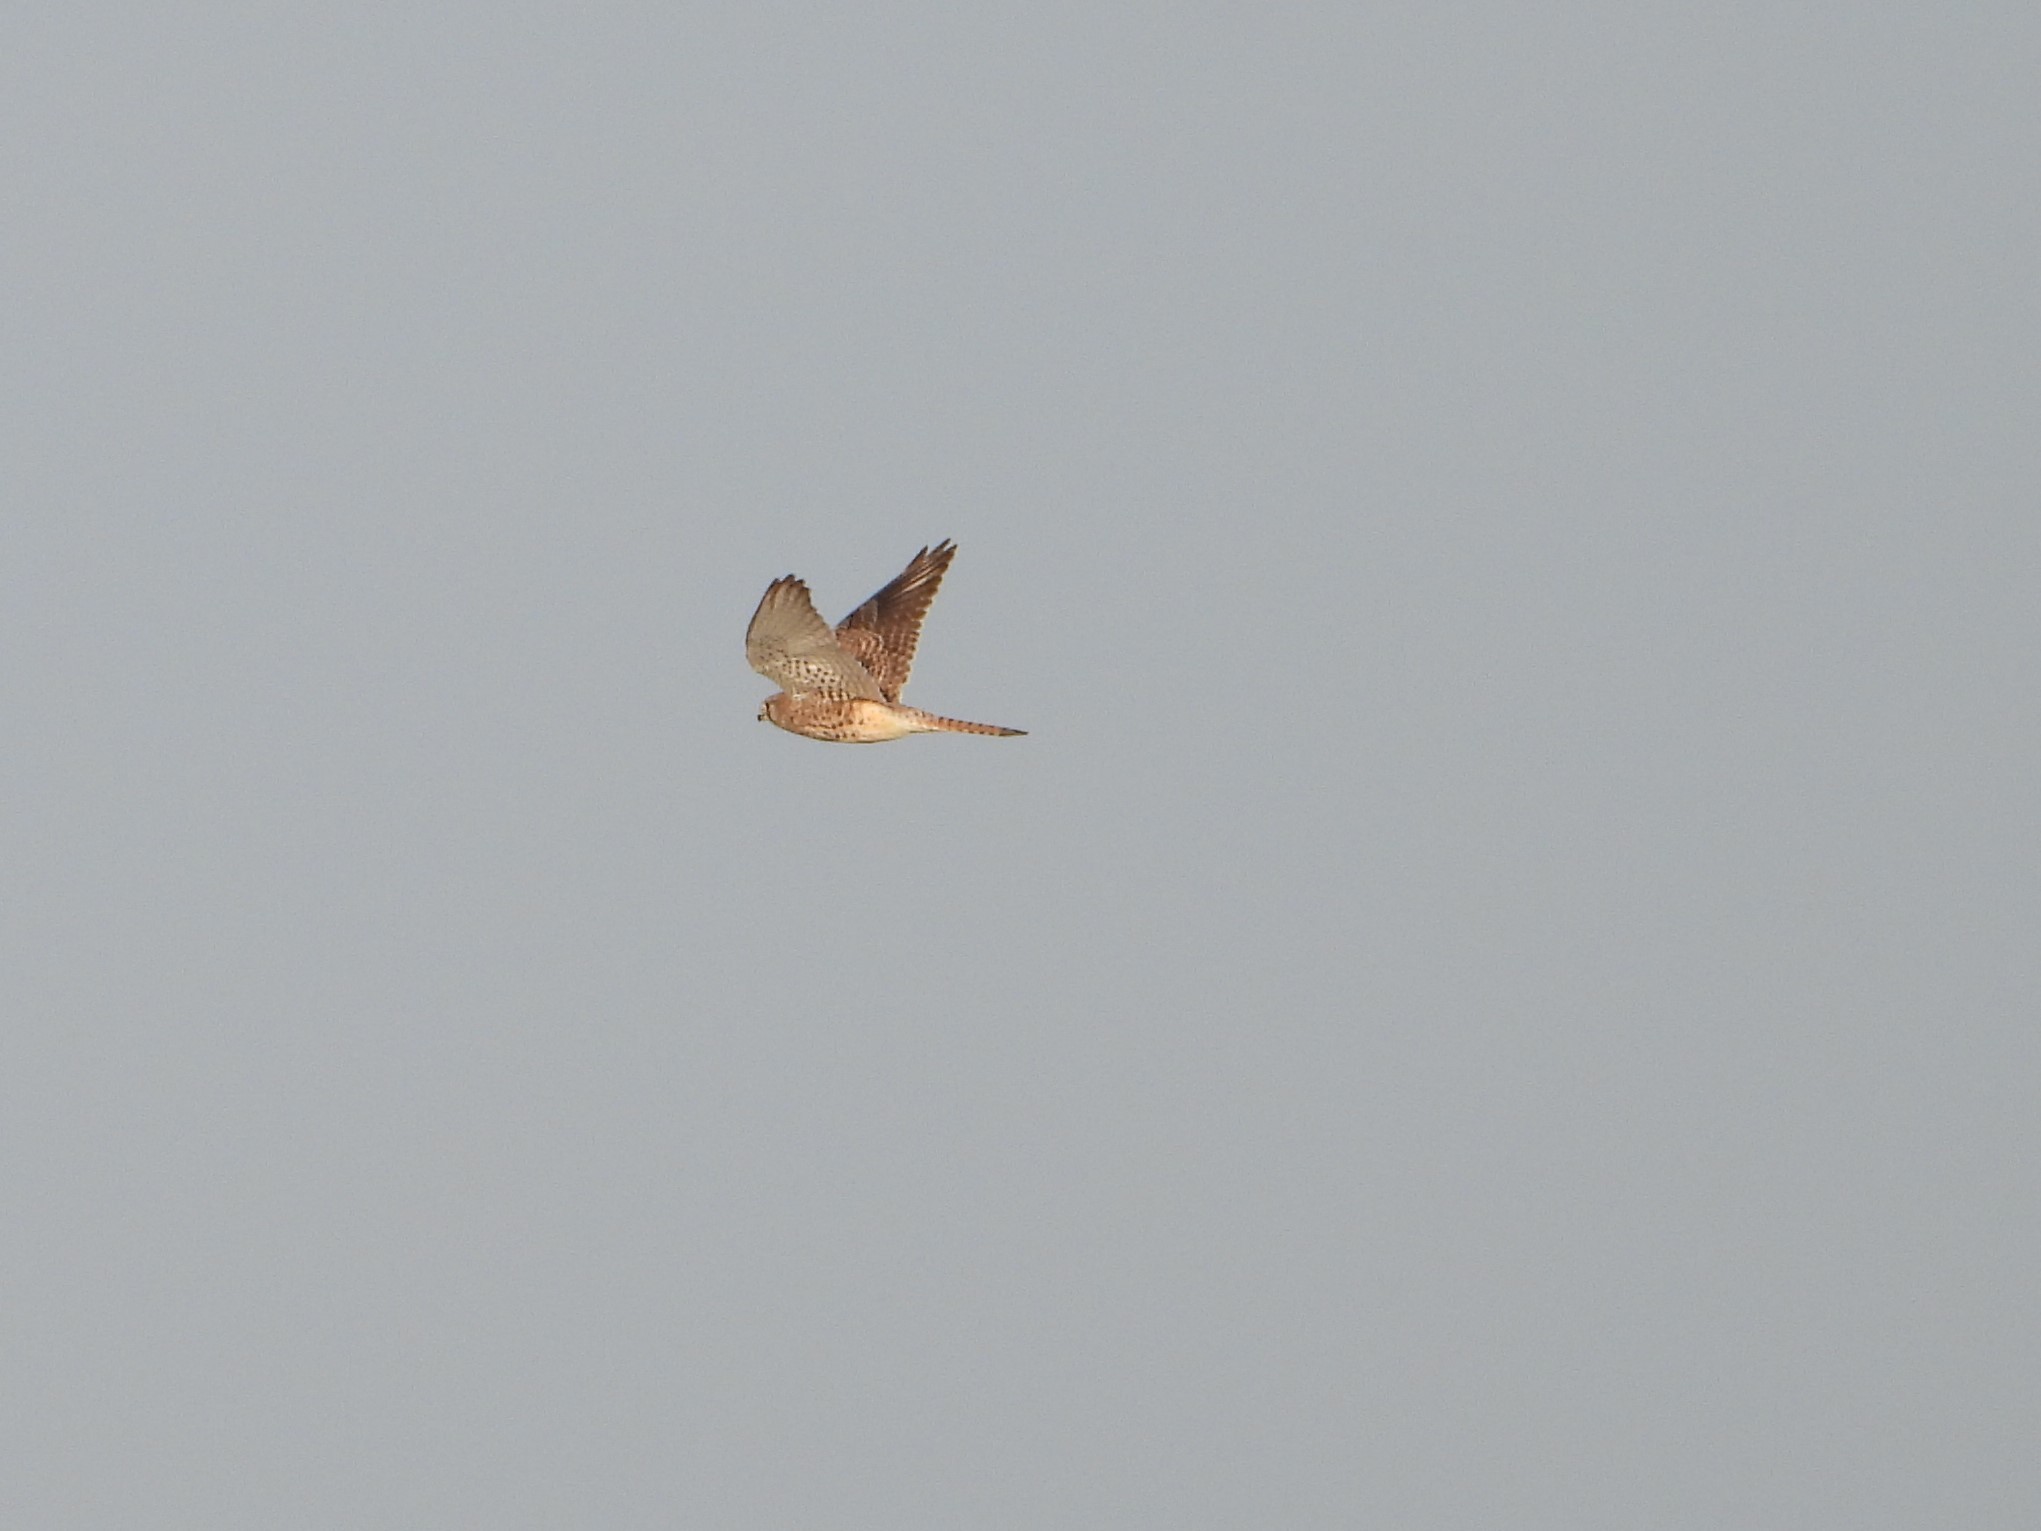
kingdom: Animalia
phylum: Chordata
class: Aves
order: Falconiformes
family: Falconidae
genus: Falco
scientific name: Falco tinnunculus
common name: Common kestrel
